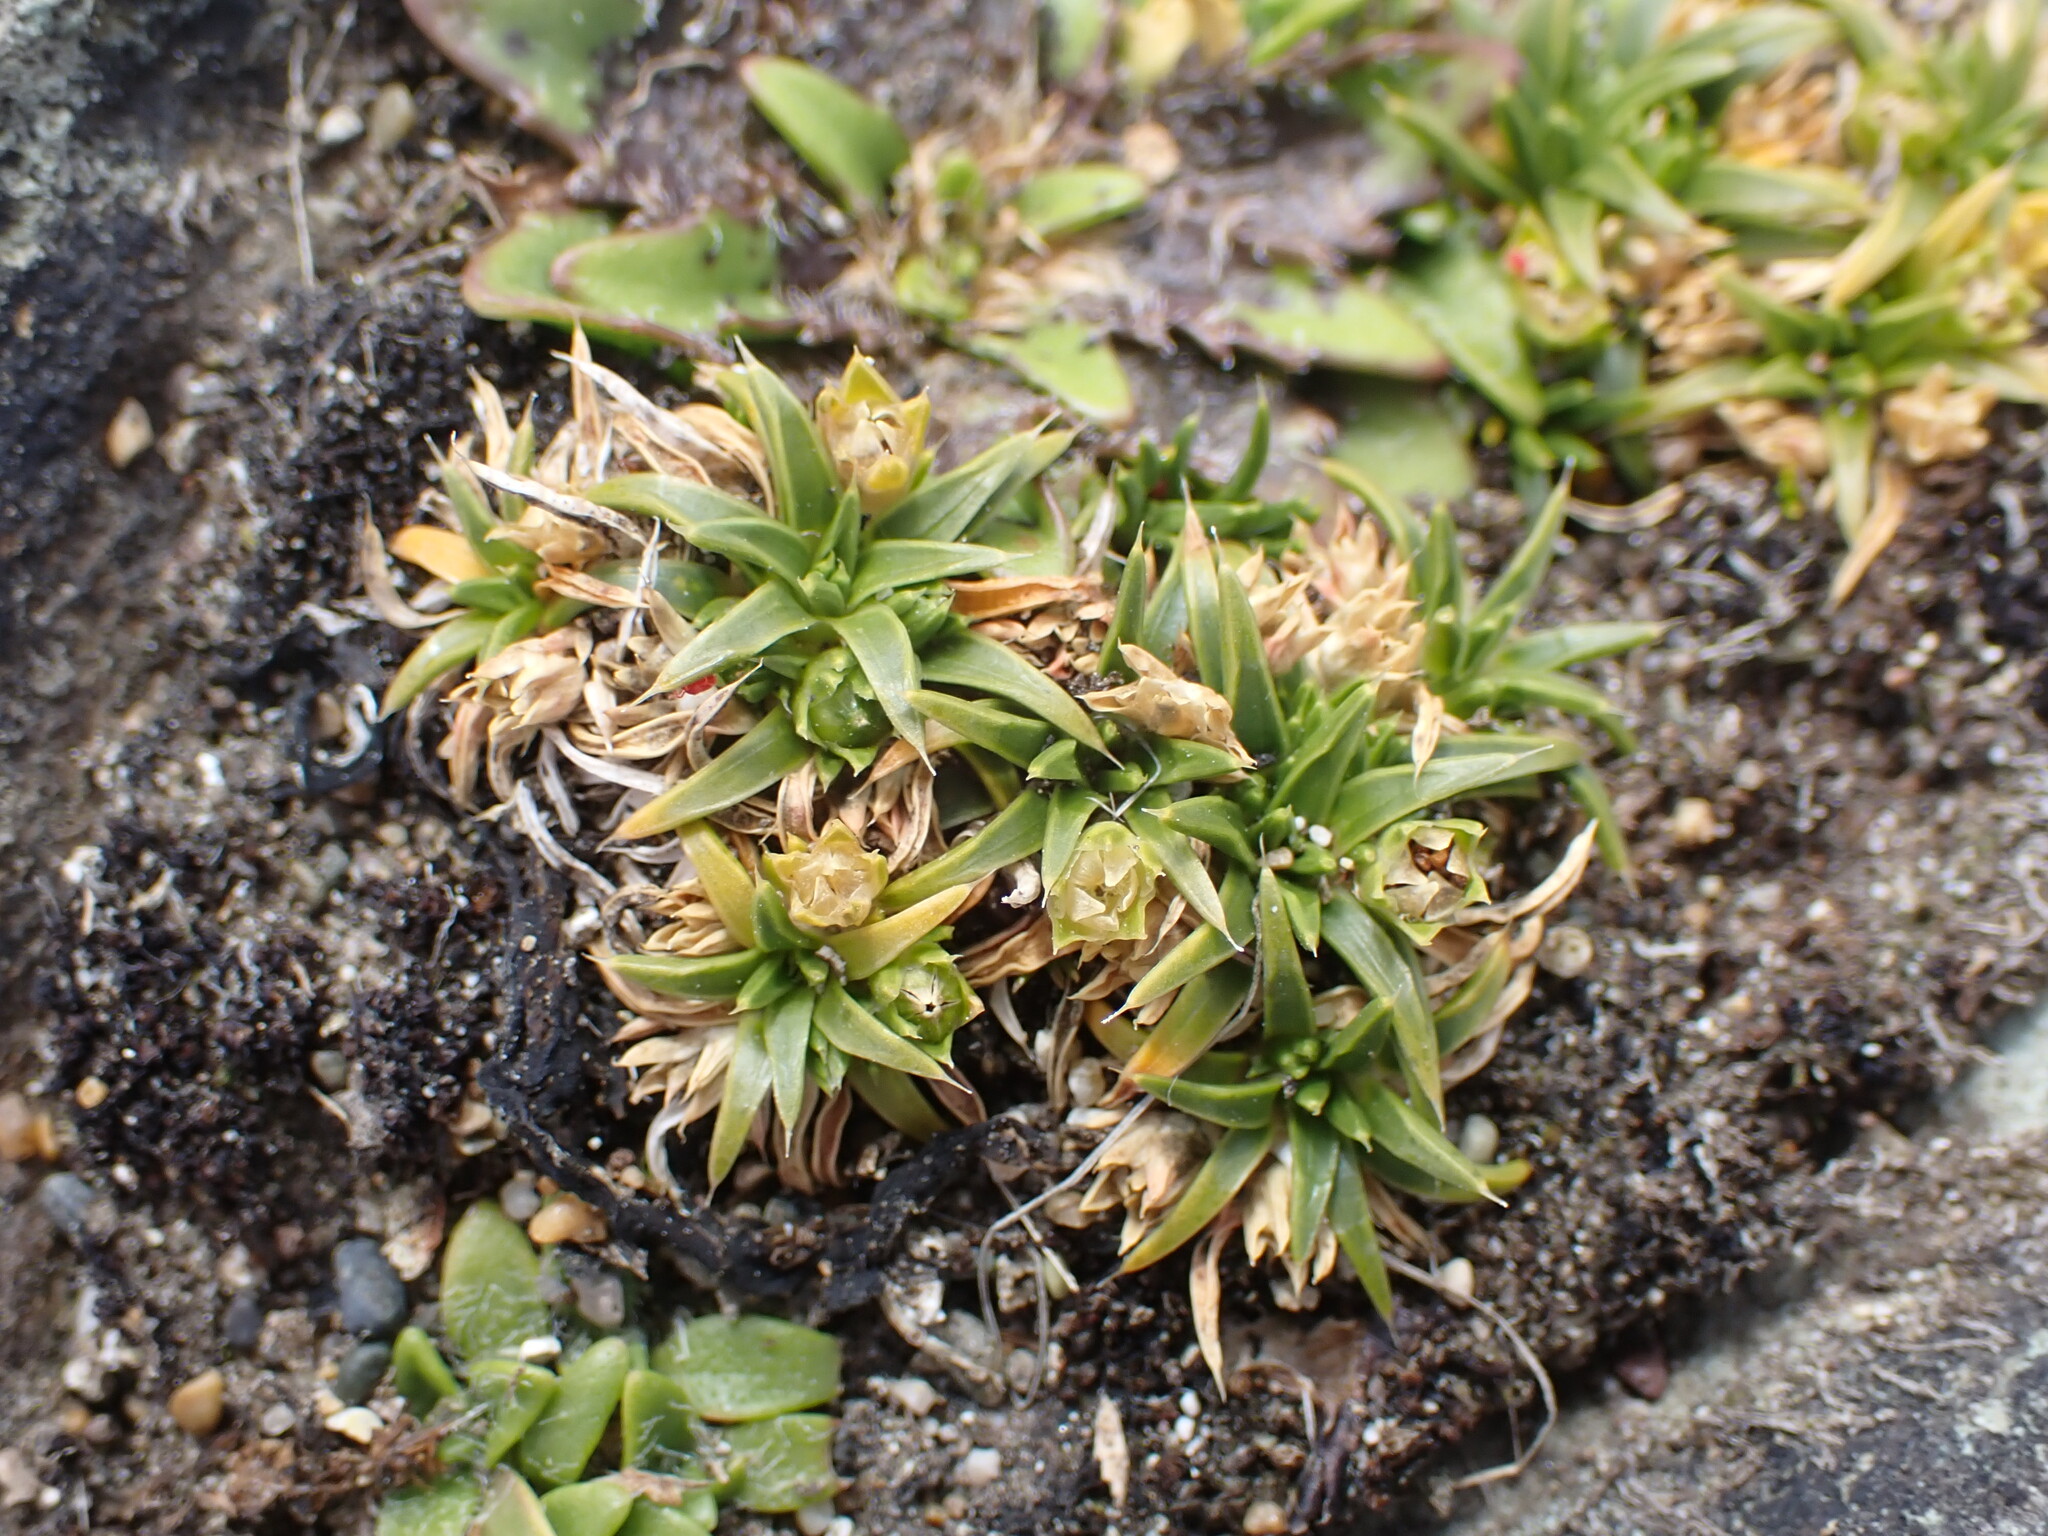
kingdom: Plantae
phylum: Tracheophyta
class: Magnoliopsida
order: Caryophyllales
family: Caryophyllaceae
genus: Colobanthus
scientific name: Colobanthus muelleri
